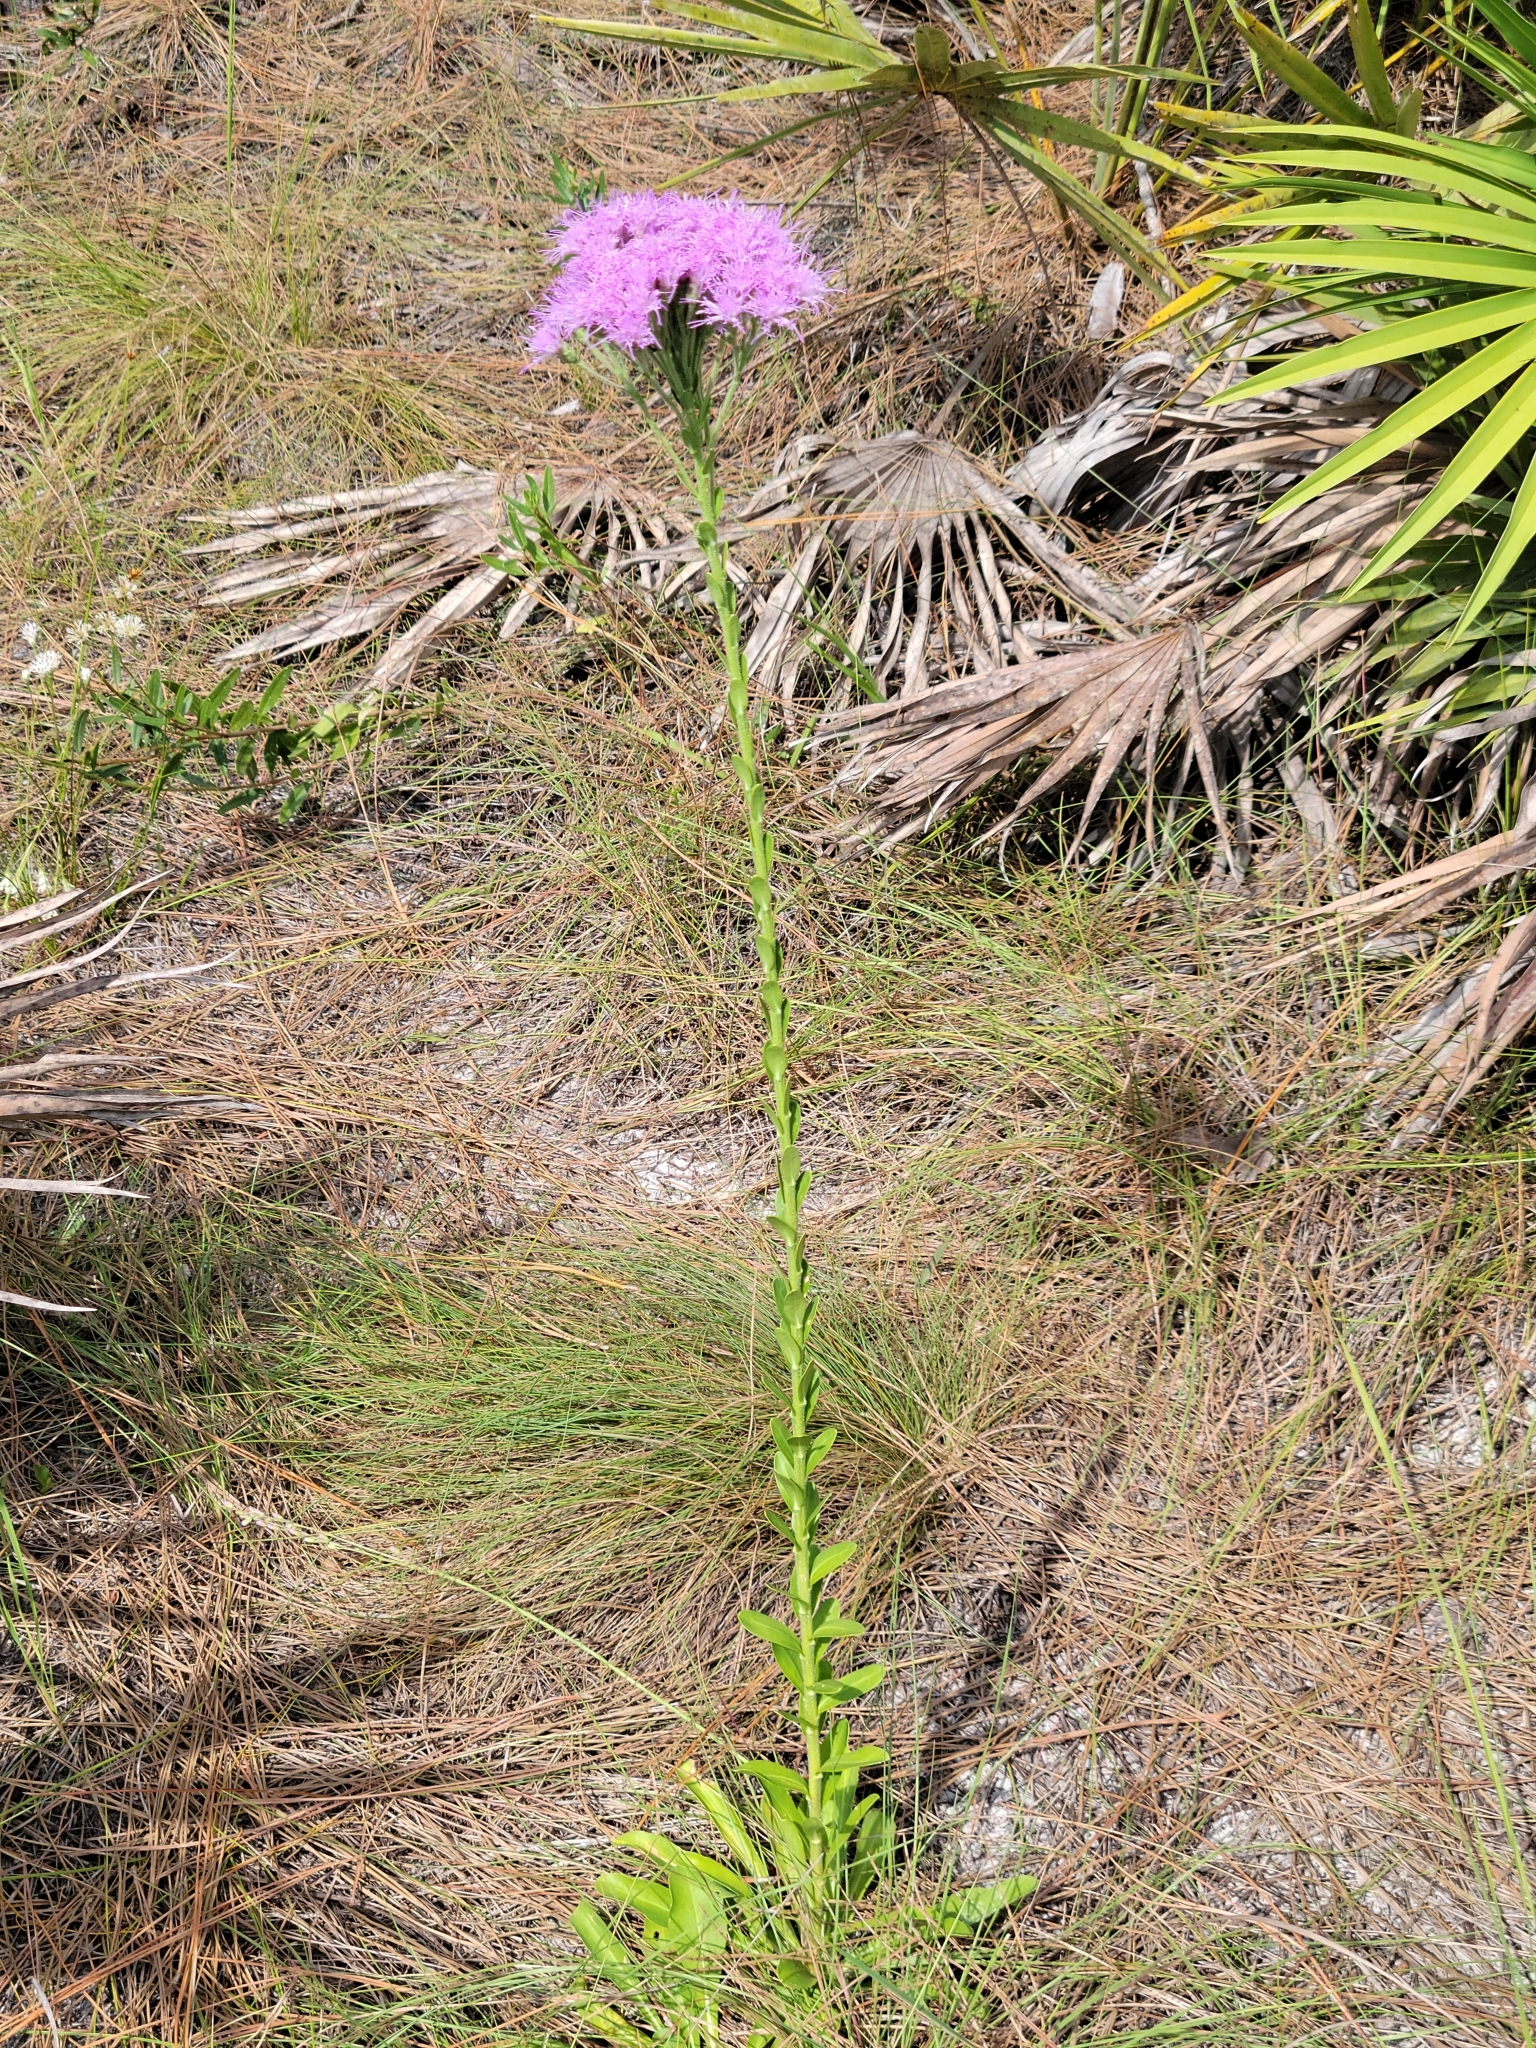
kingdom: Plantae
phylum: Tracheophyta
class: Magnoliopsida
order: Asterales
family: Asteraceae
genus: Carphephorus
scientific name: Carphephorus corymbosus
